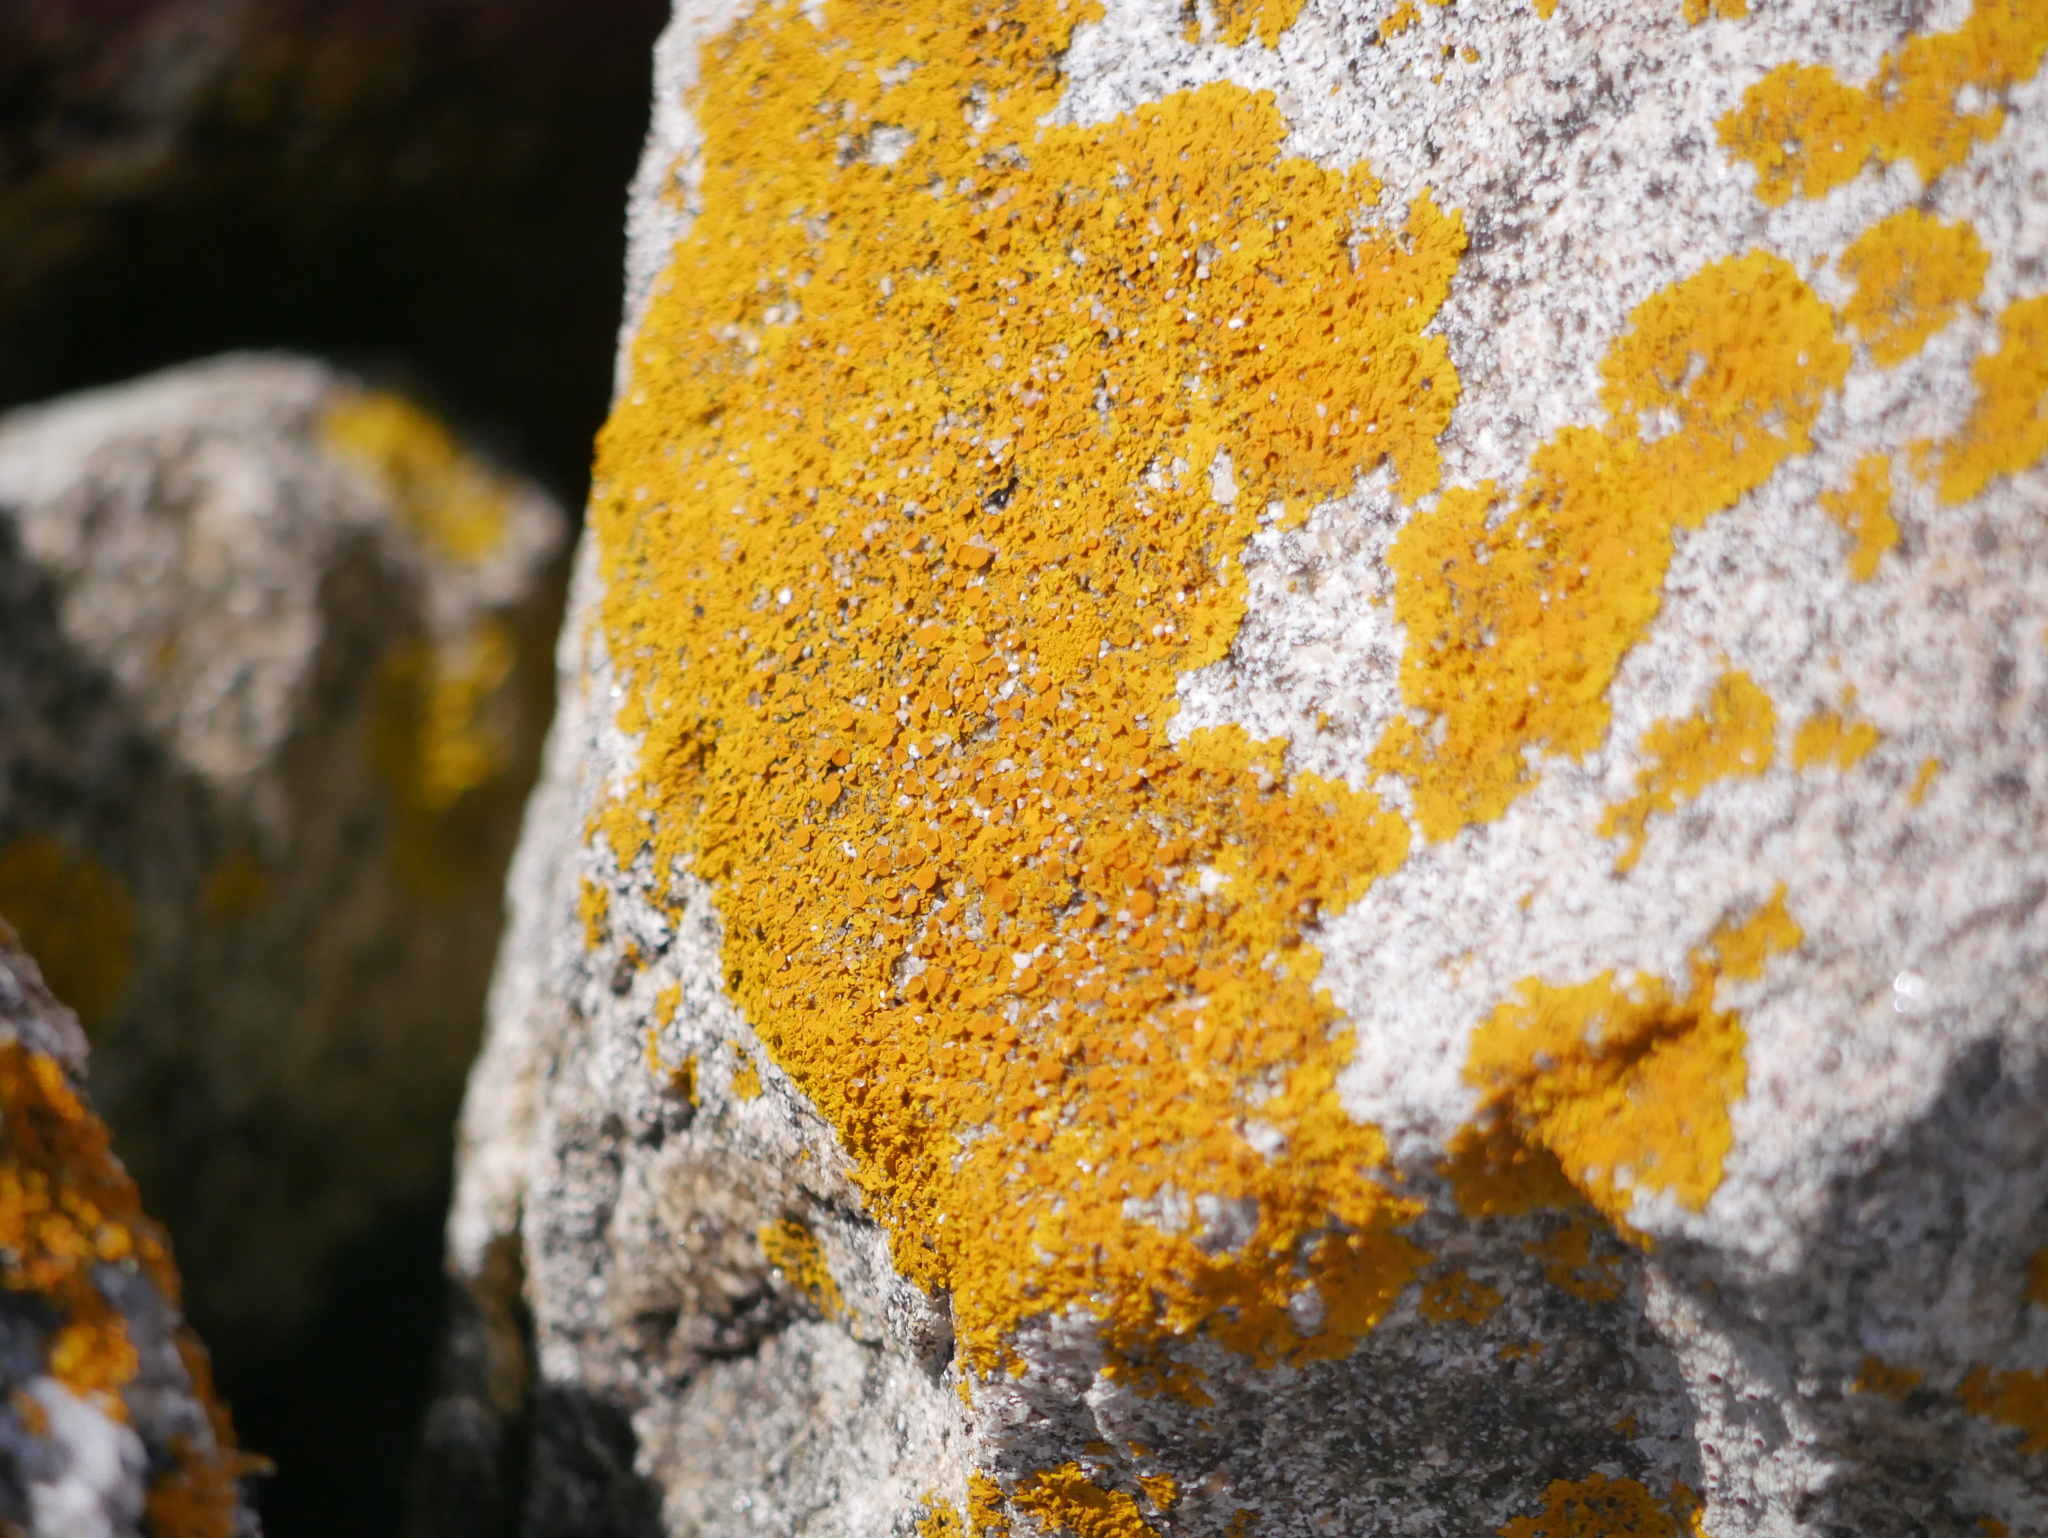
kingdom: Fungi
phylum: Ascomycota
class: Lecanoromycetes
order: Teloschistales
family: Teloschistaceae
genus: Xanthoria
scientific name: Xanthoria parietina
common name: Common orange lichen
